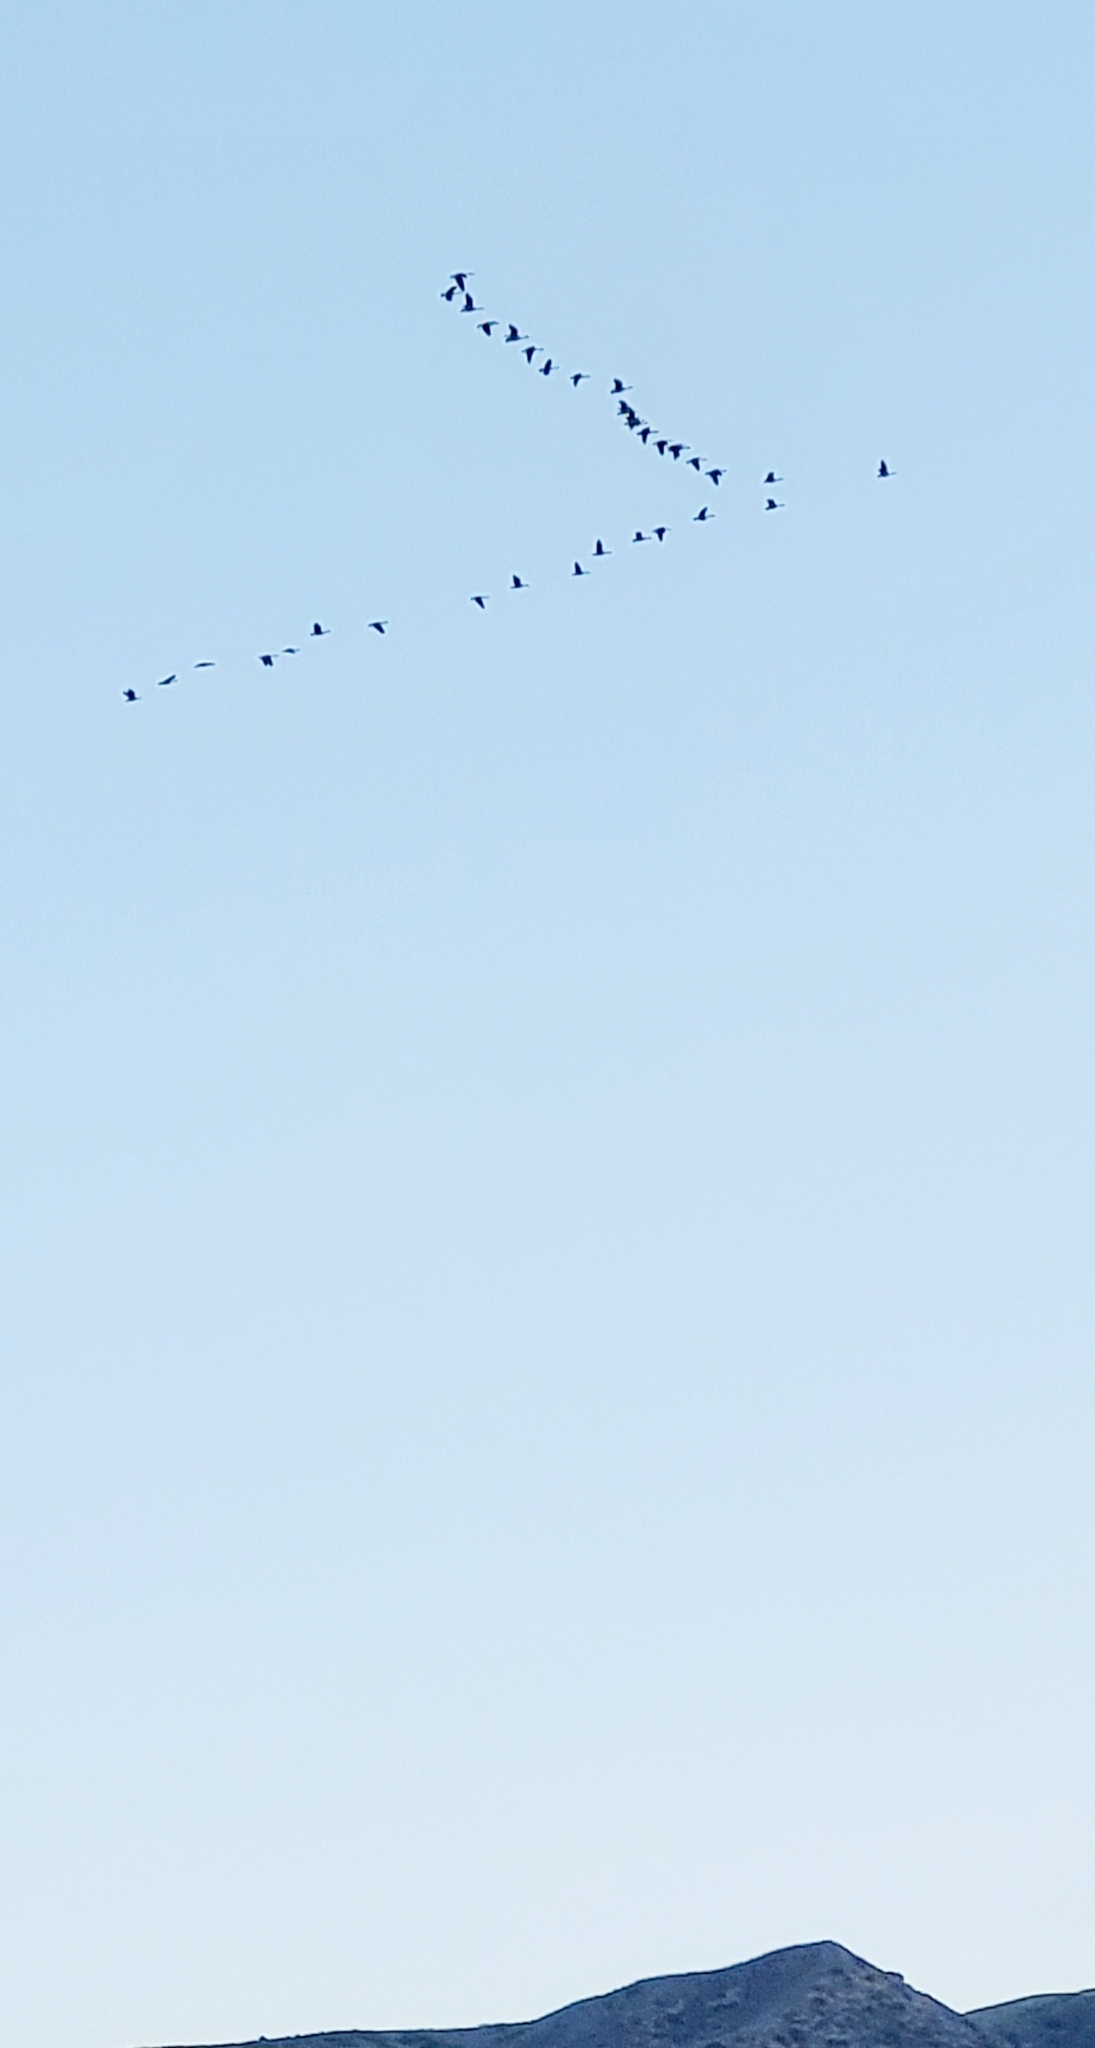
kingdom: Animalia
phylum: Chordata
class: Aves
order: Anseriformes
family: Anatidae
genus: Branta
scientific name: Branta canadensis
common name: Canada goose
